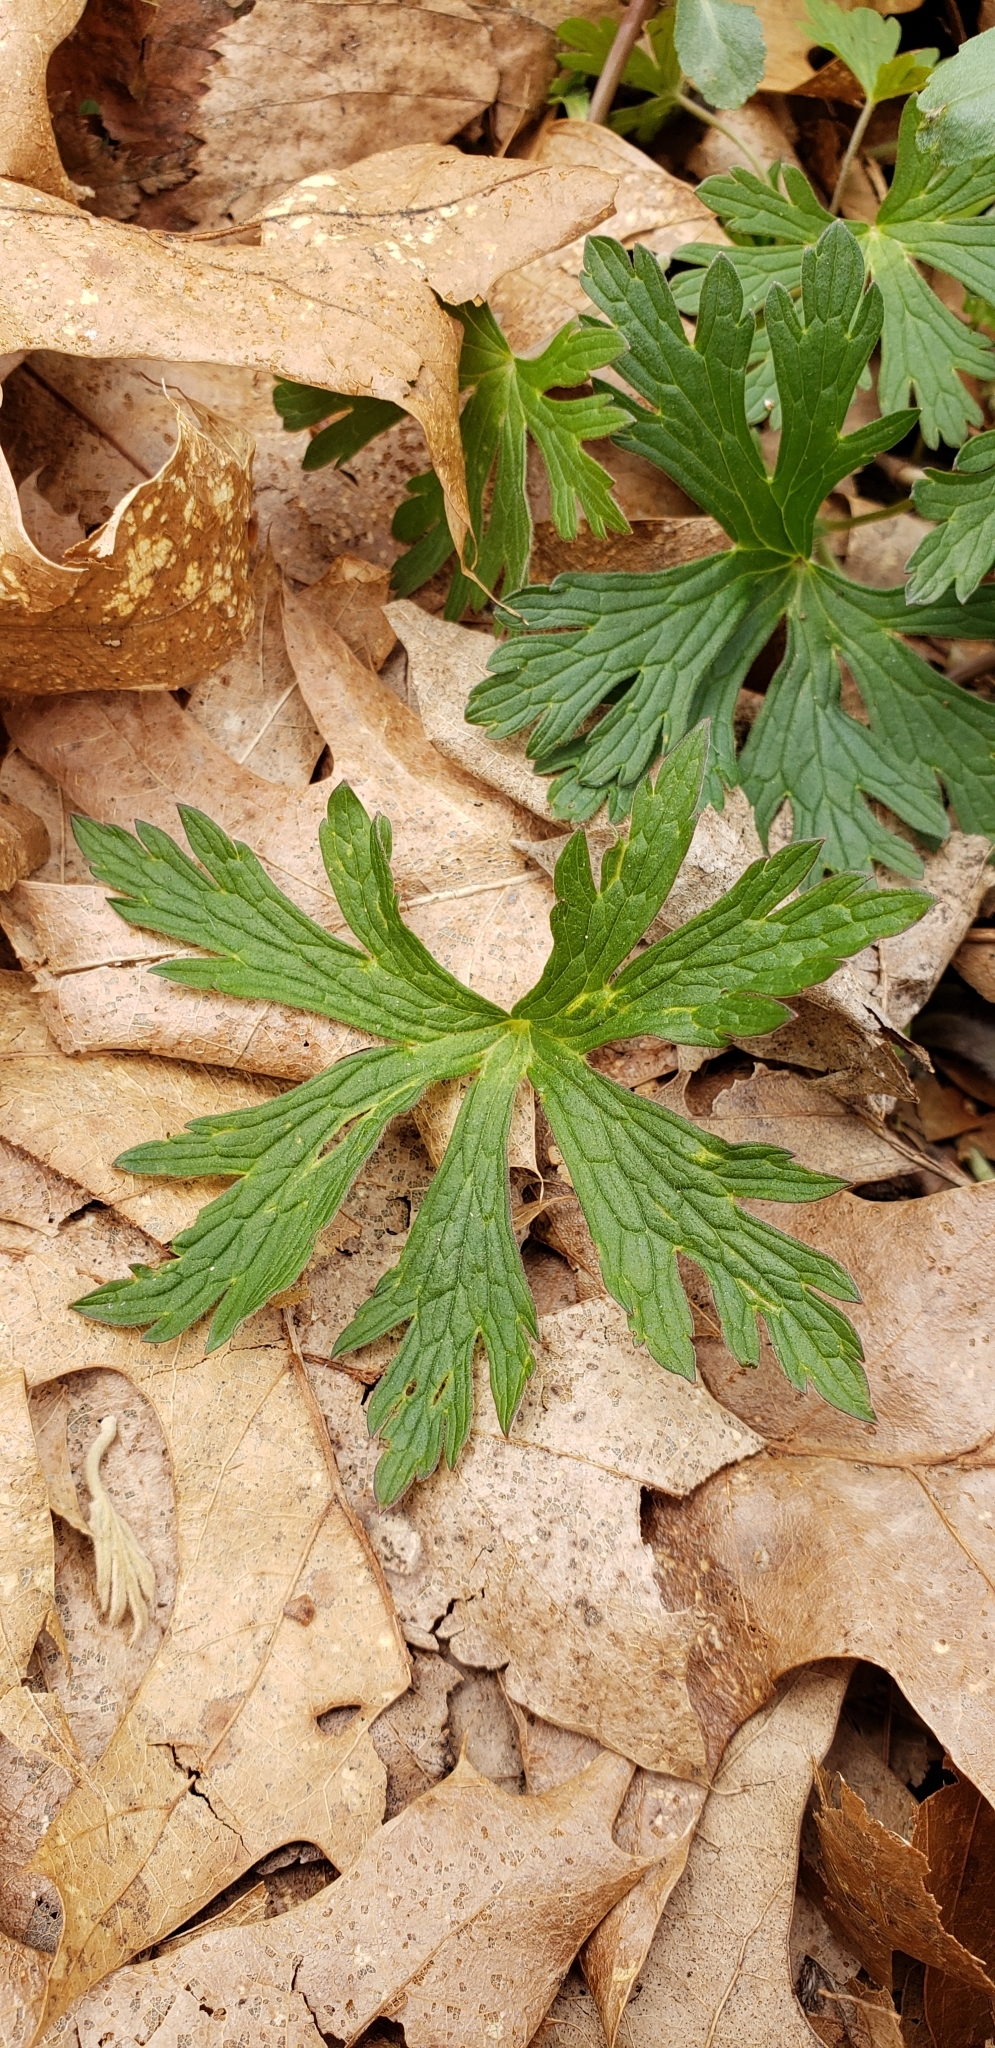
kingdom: Plantae
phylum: Tracheophyta
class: Magnoliopsida
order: Geraniales
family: Geraniaceae
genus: Geranium
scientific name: Geranium maculatum
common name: Spotted geranium
